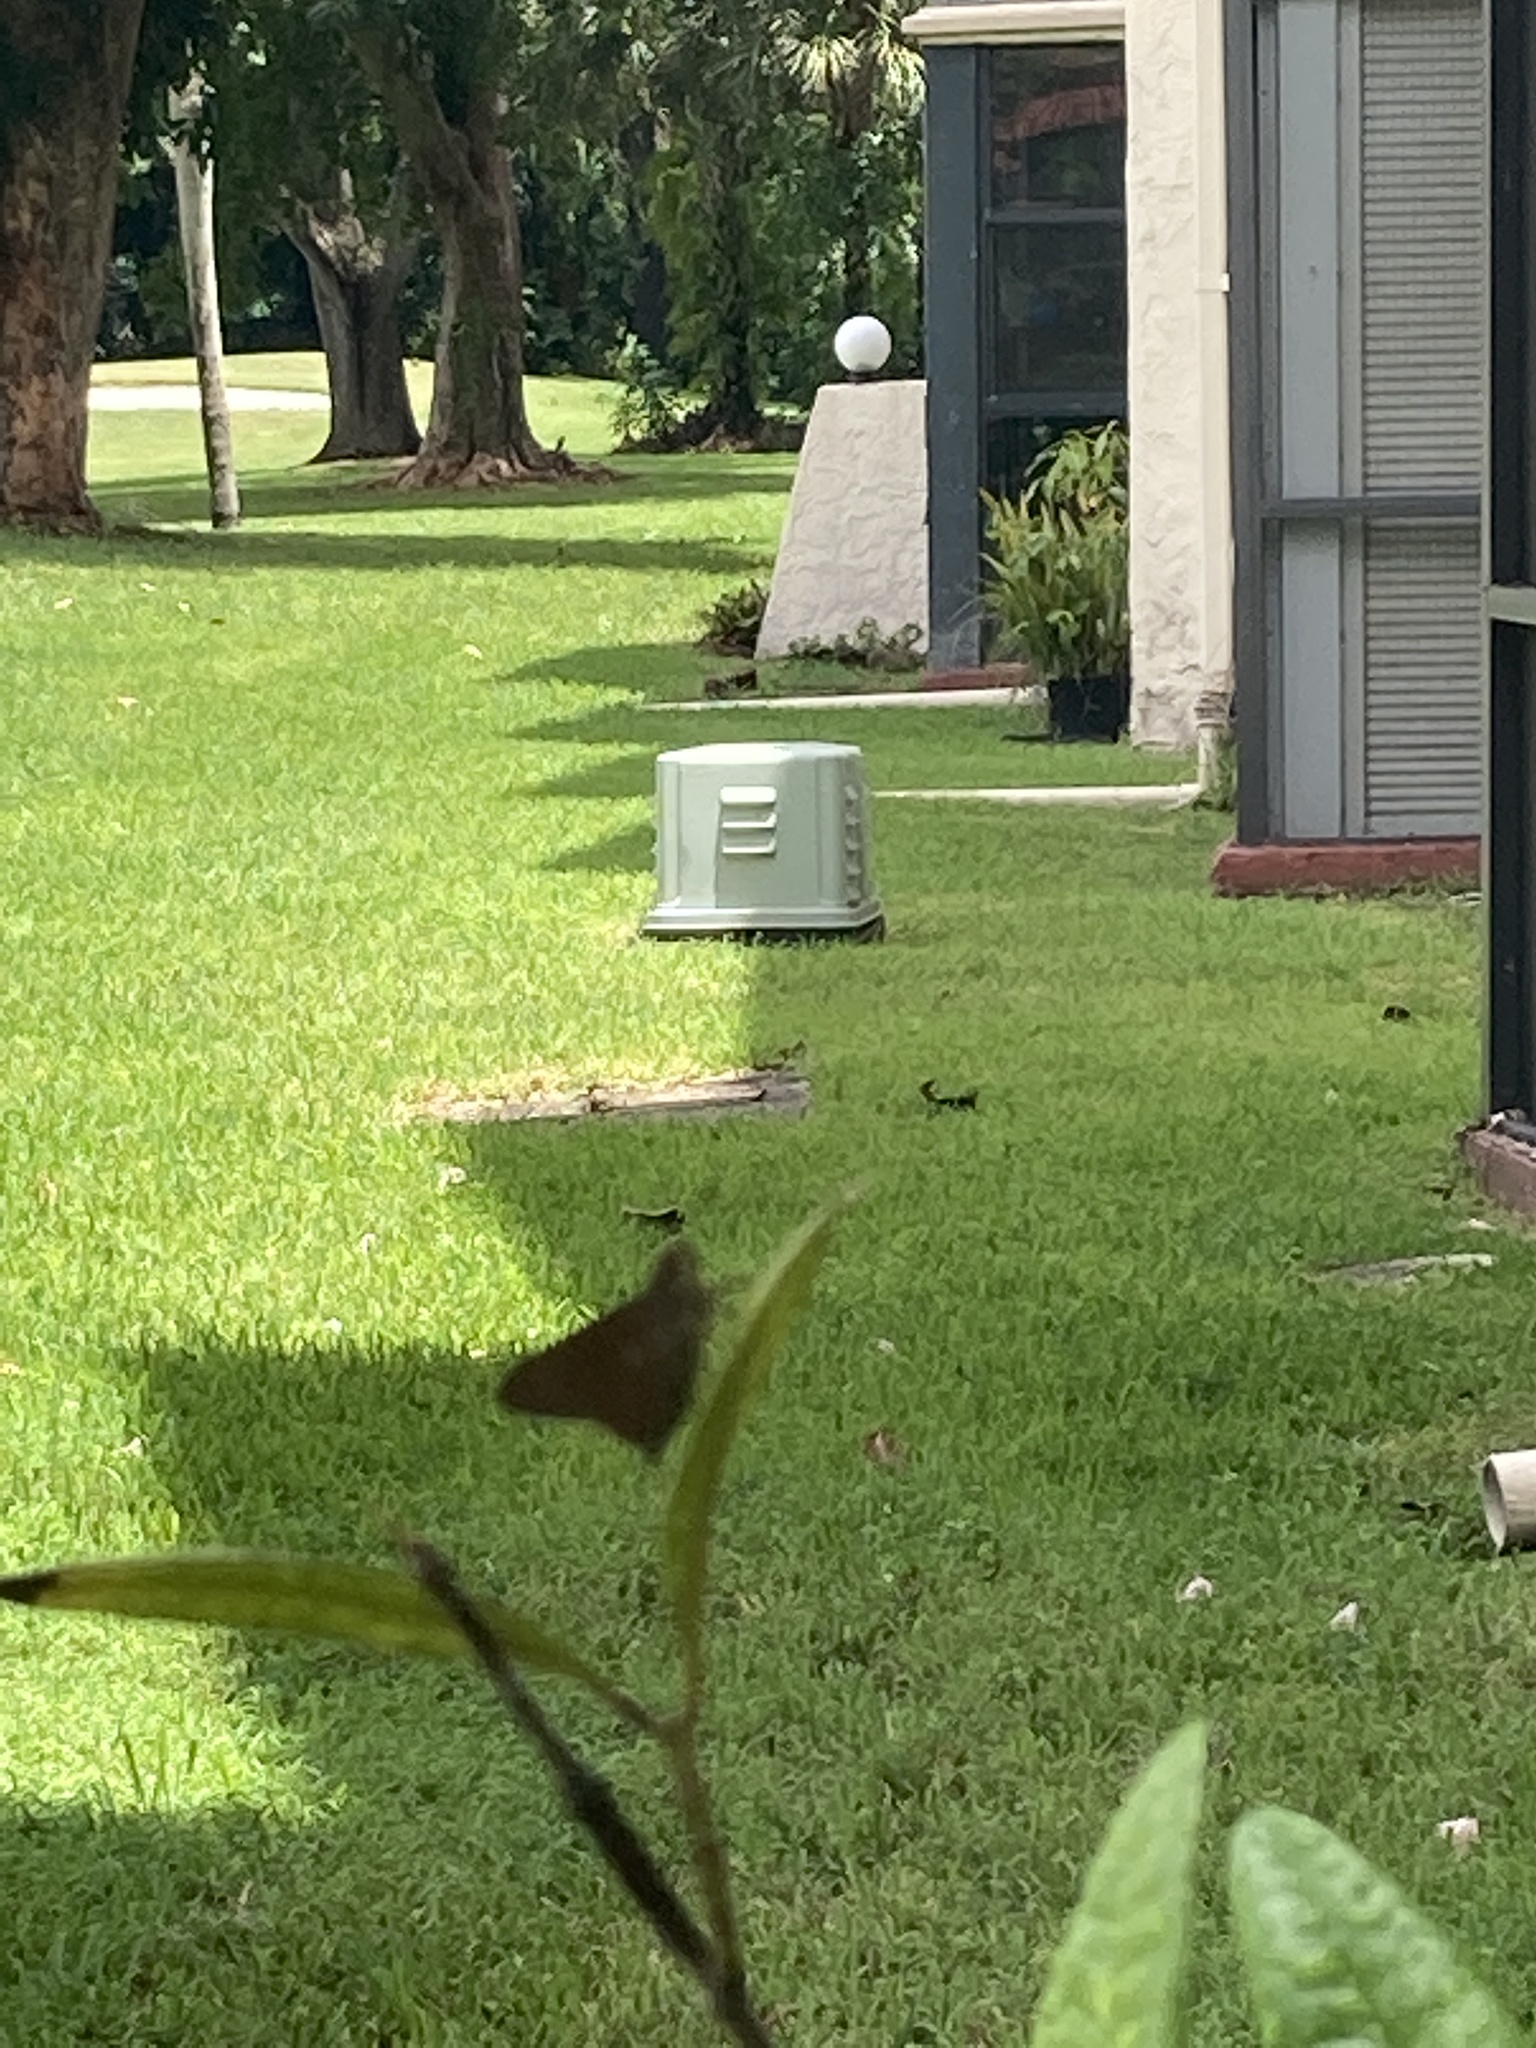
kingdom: Animalia
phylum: Arthropoda
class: Insecta
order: Lepidoptera
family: Hesperiidae
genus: Asbolis
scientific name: Asbolis capucinus
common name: Monk skipper
